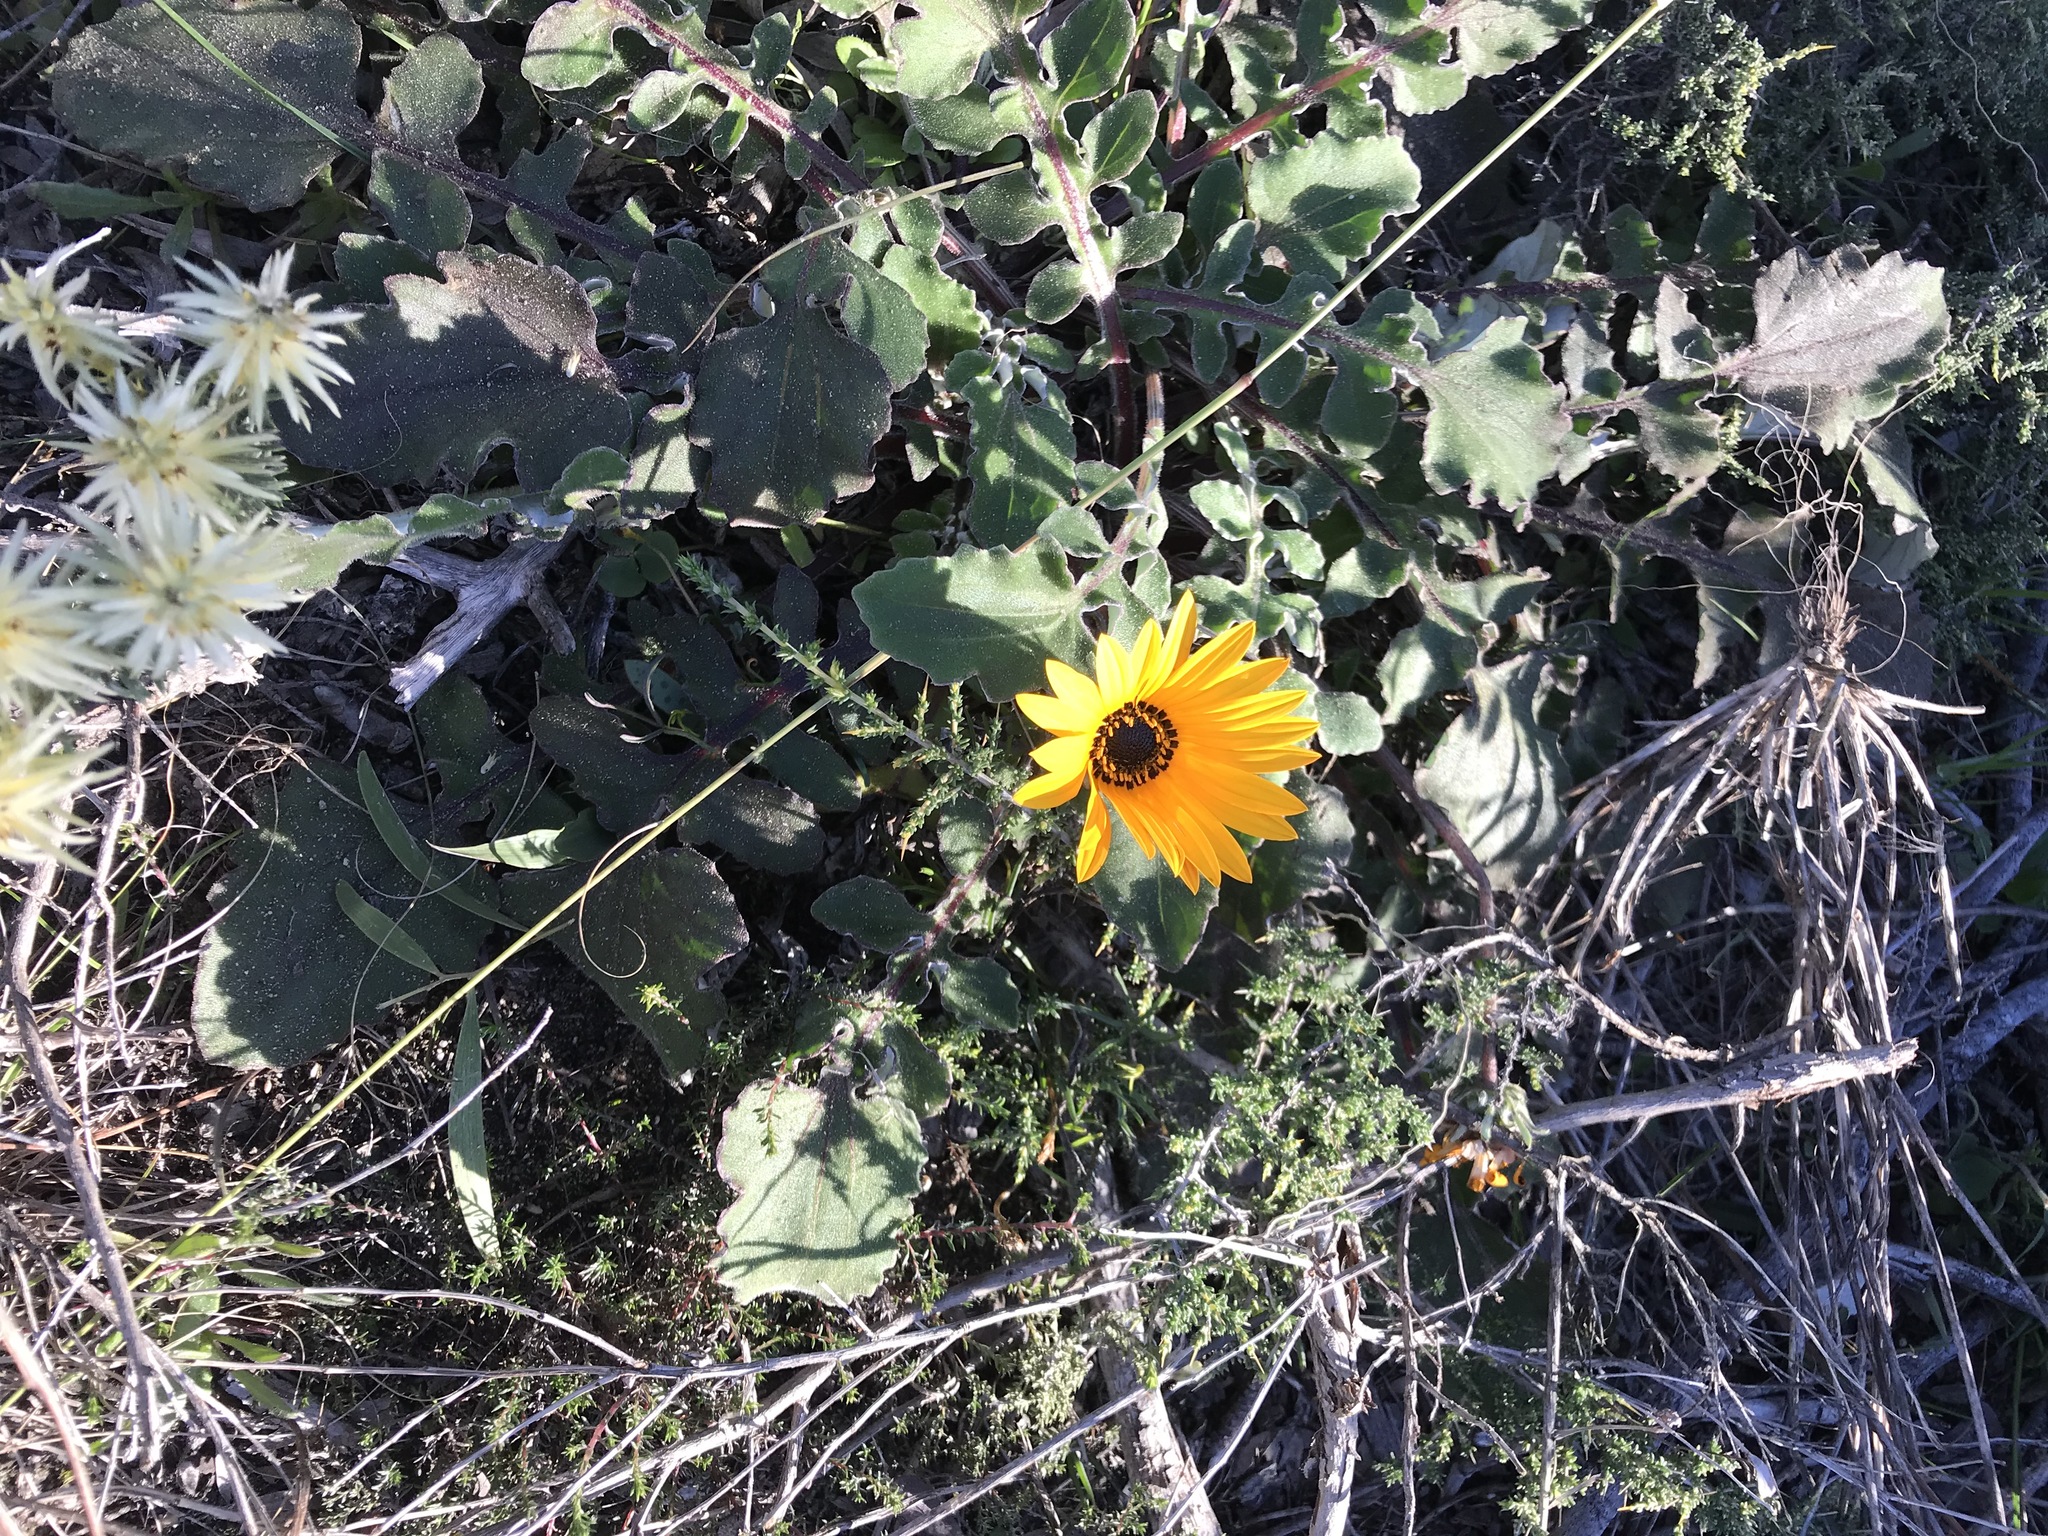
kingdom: Plantae
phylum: Tracheophyta
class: Magnoliopsida
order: Asterales
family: Asteraceae
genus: Arctotis
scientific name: Arctotis acaulis
